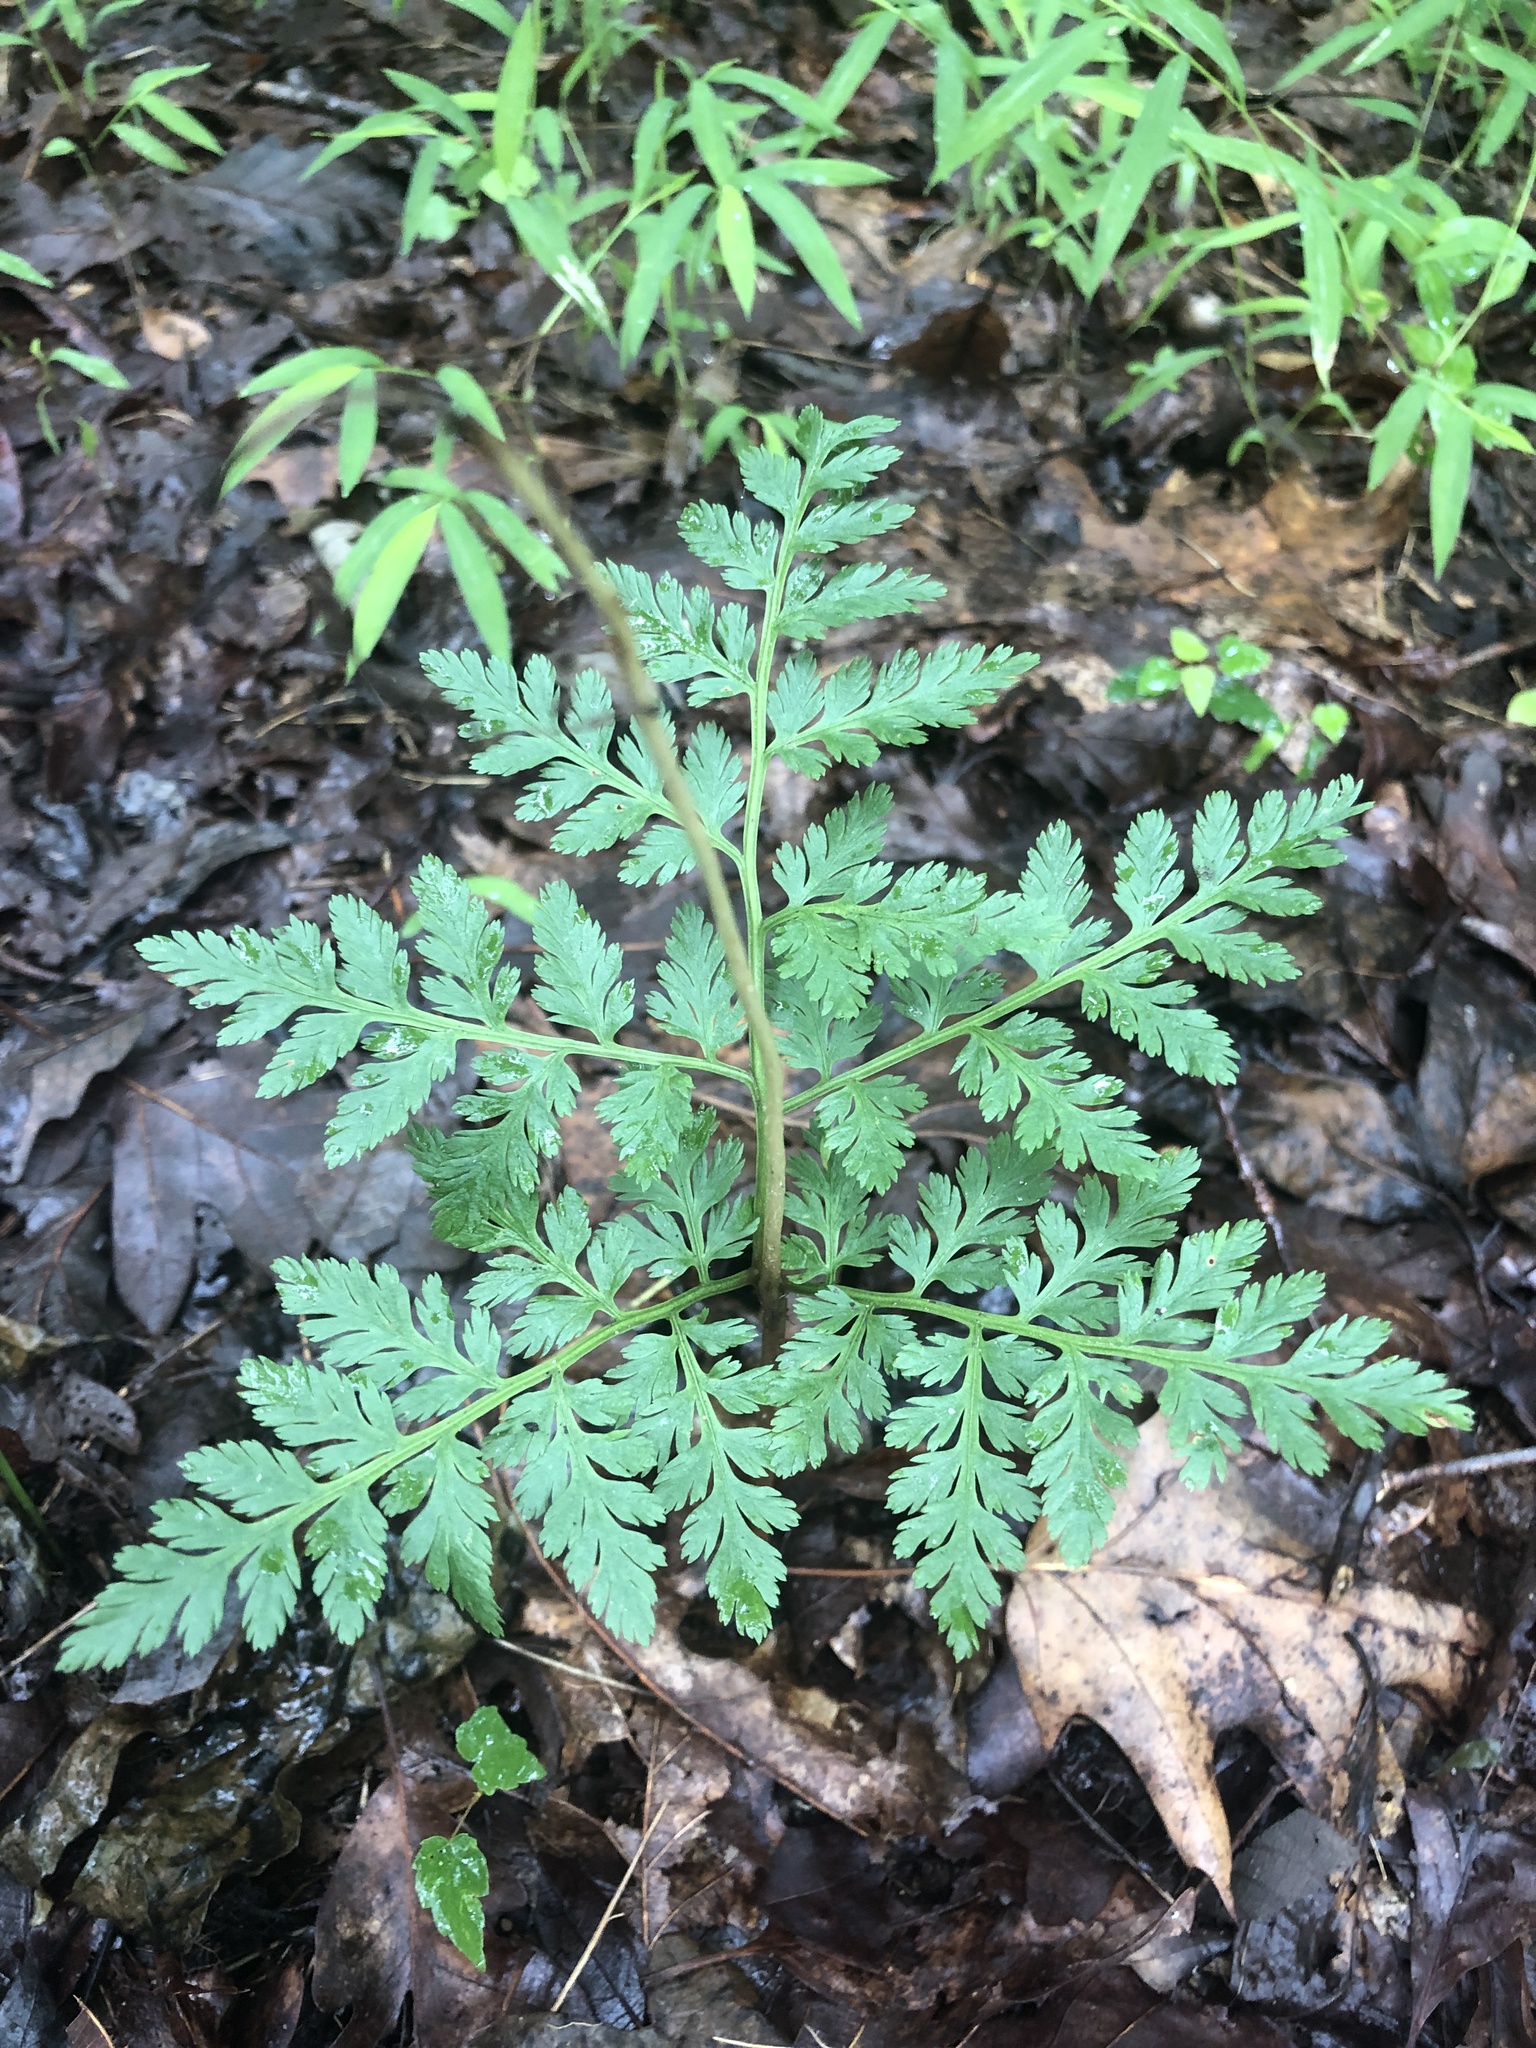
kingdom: Plantae
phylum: Tracheophyta
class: Polypodiopsida
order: Ophioglossales
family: Ophioglossaceae
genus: Botrypus
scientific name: Botrypus virginianus
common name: Common grapefern
